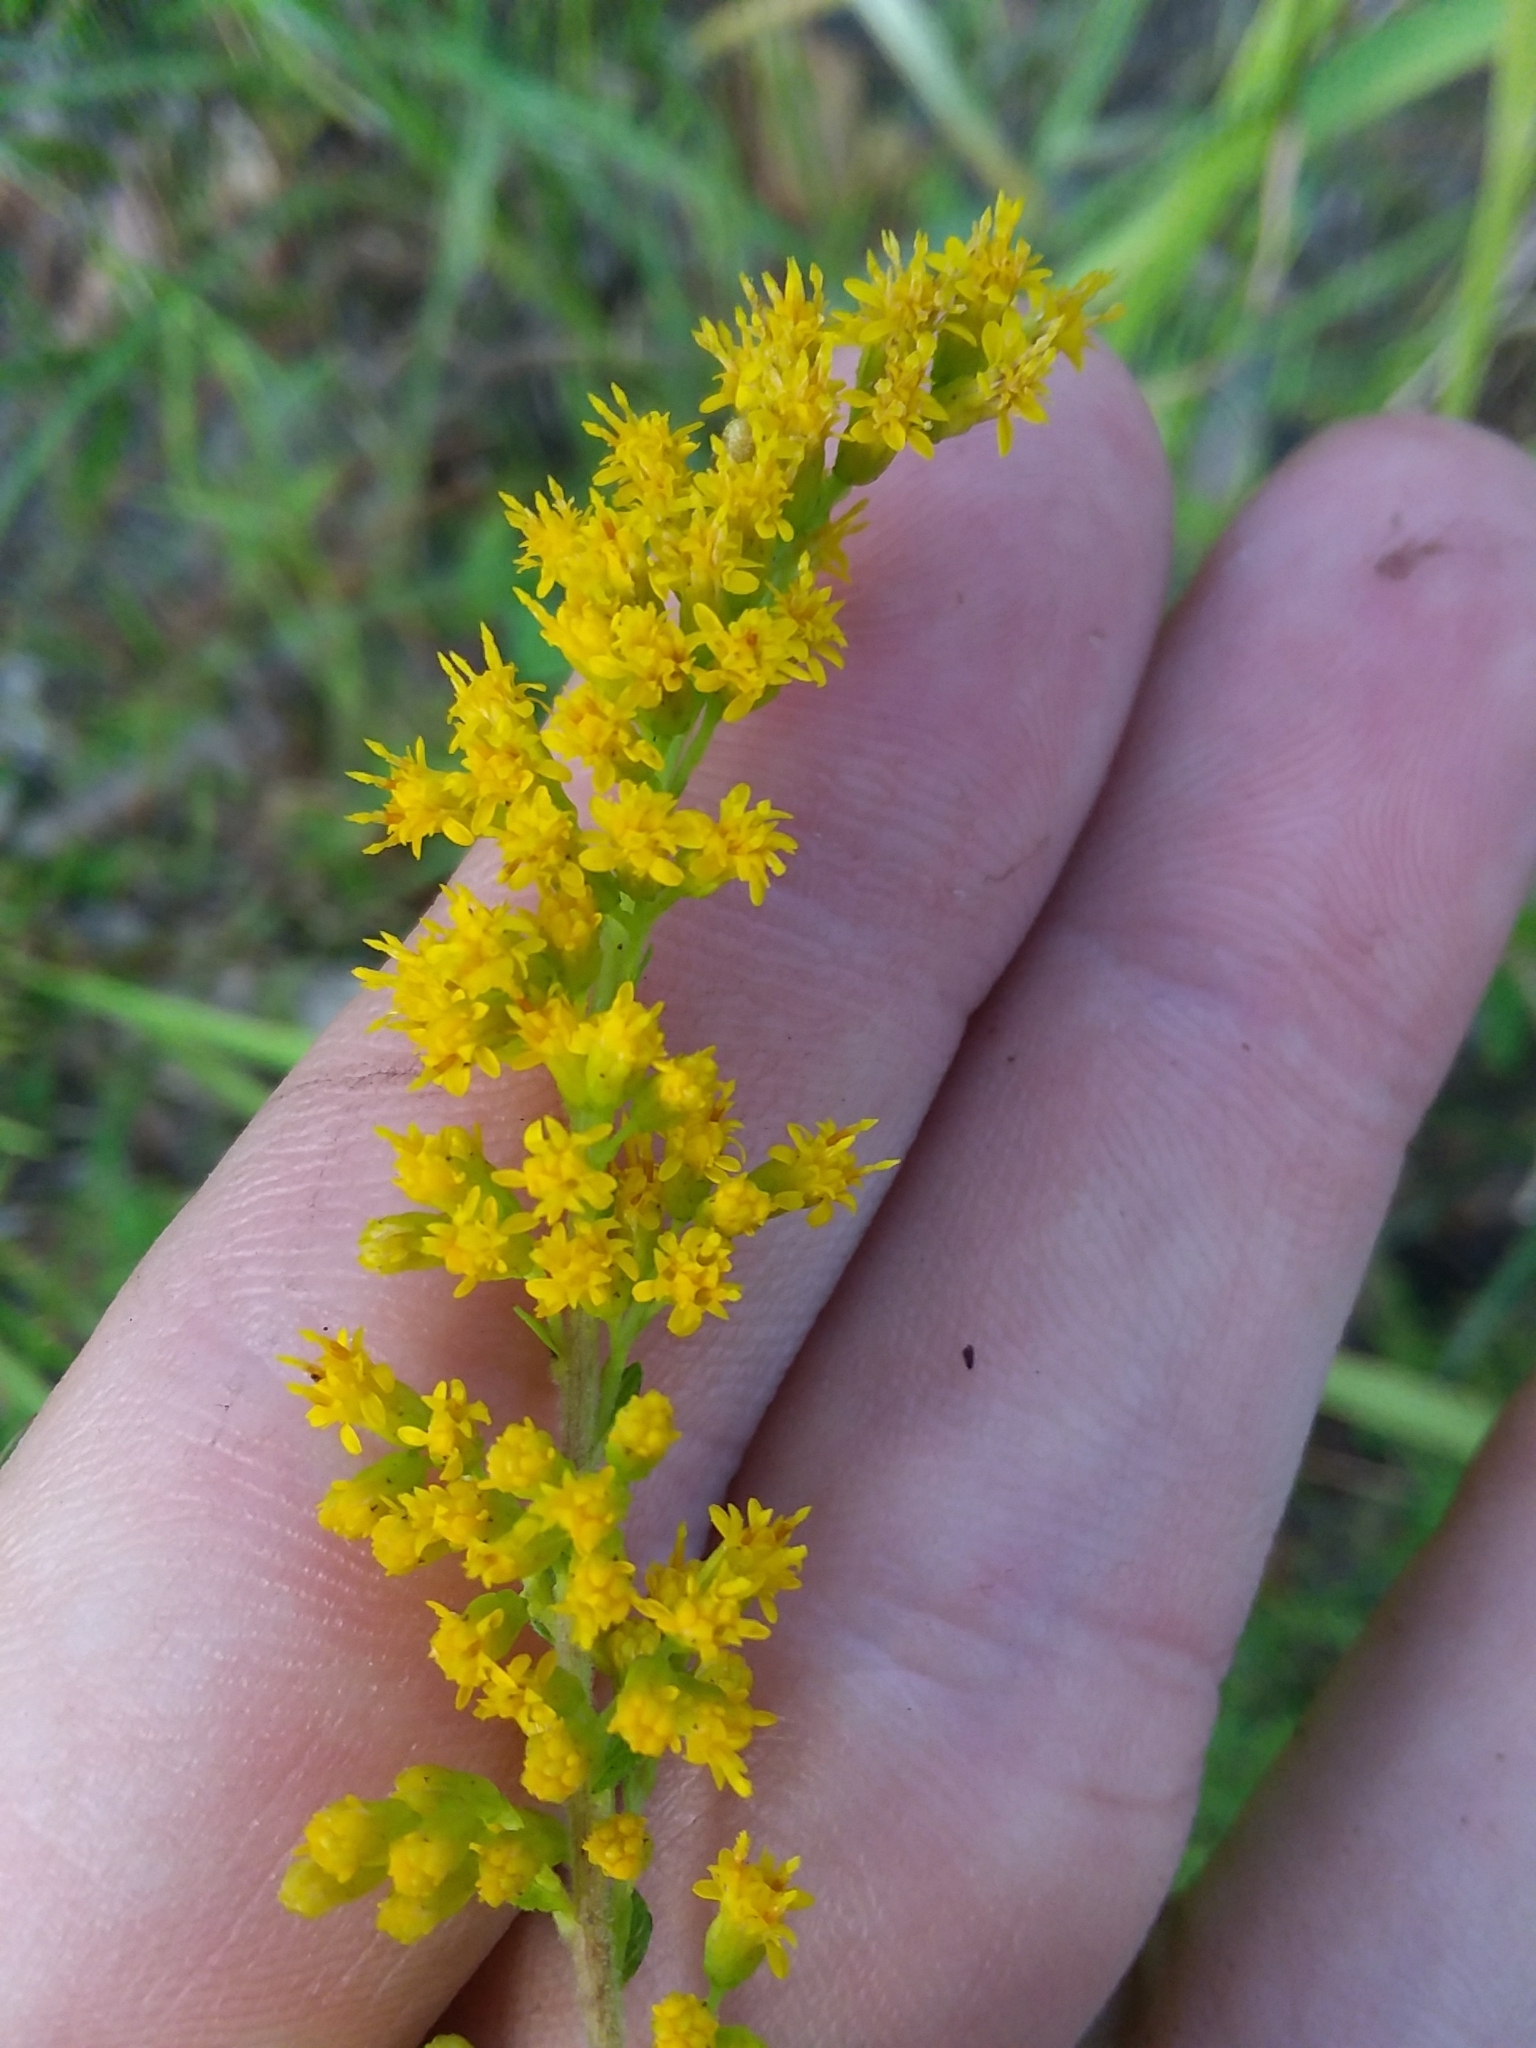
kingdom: Plantae
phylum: Tracheophyta
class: Magnoliopsida
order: Asterales
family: Asteraceae
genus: Solidago
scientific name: Solidago rugosa
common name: Rough-stemmed goldenrod
